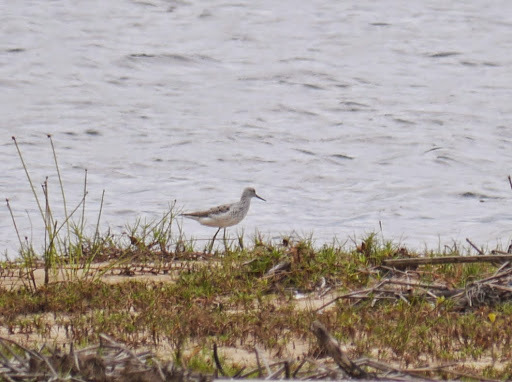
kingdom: Animalia
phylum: Chordata
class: Aves
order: Charadriiformes
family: Scolopacidae
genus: Tringa
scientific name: Tringa stagnatilis
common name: Marsh sandpiper
